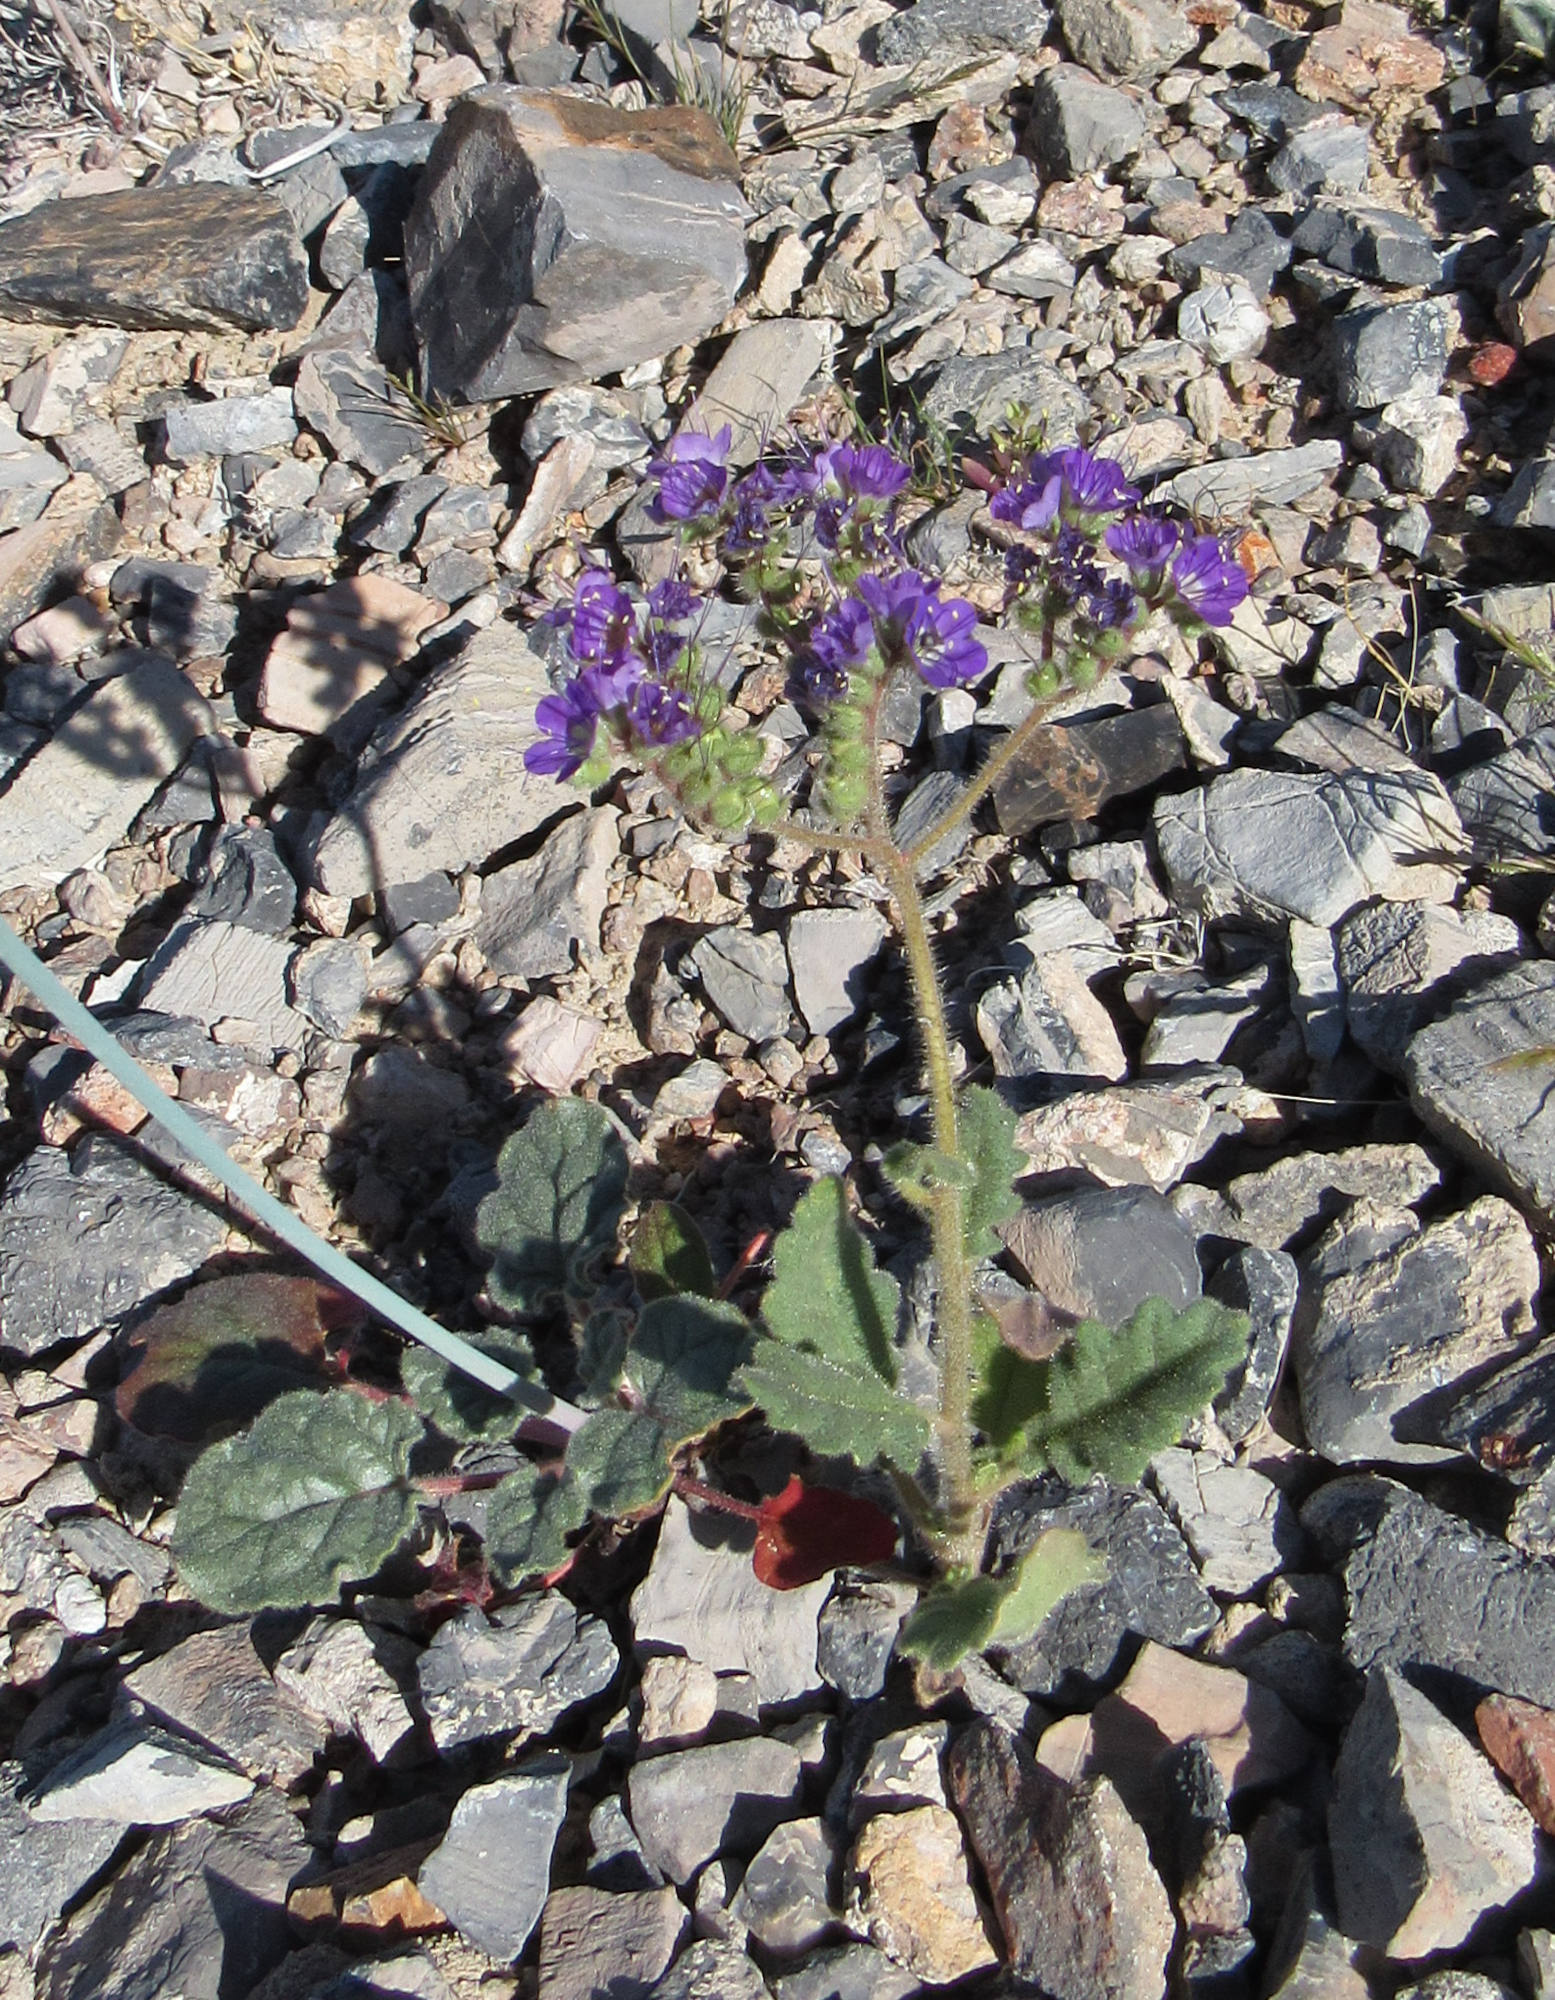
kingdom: Plantae
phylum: Tracheophyta
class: Magnoliopsida
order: Boraginales
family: Hydrophyllaceae
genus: Phacelia
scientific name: Phacelia crenulata
